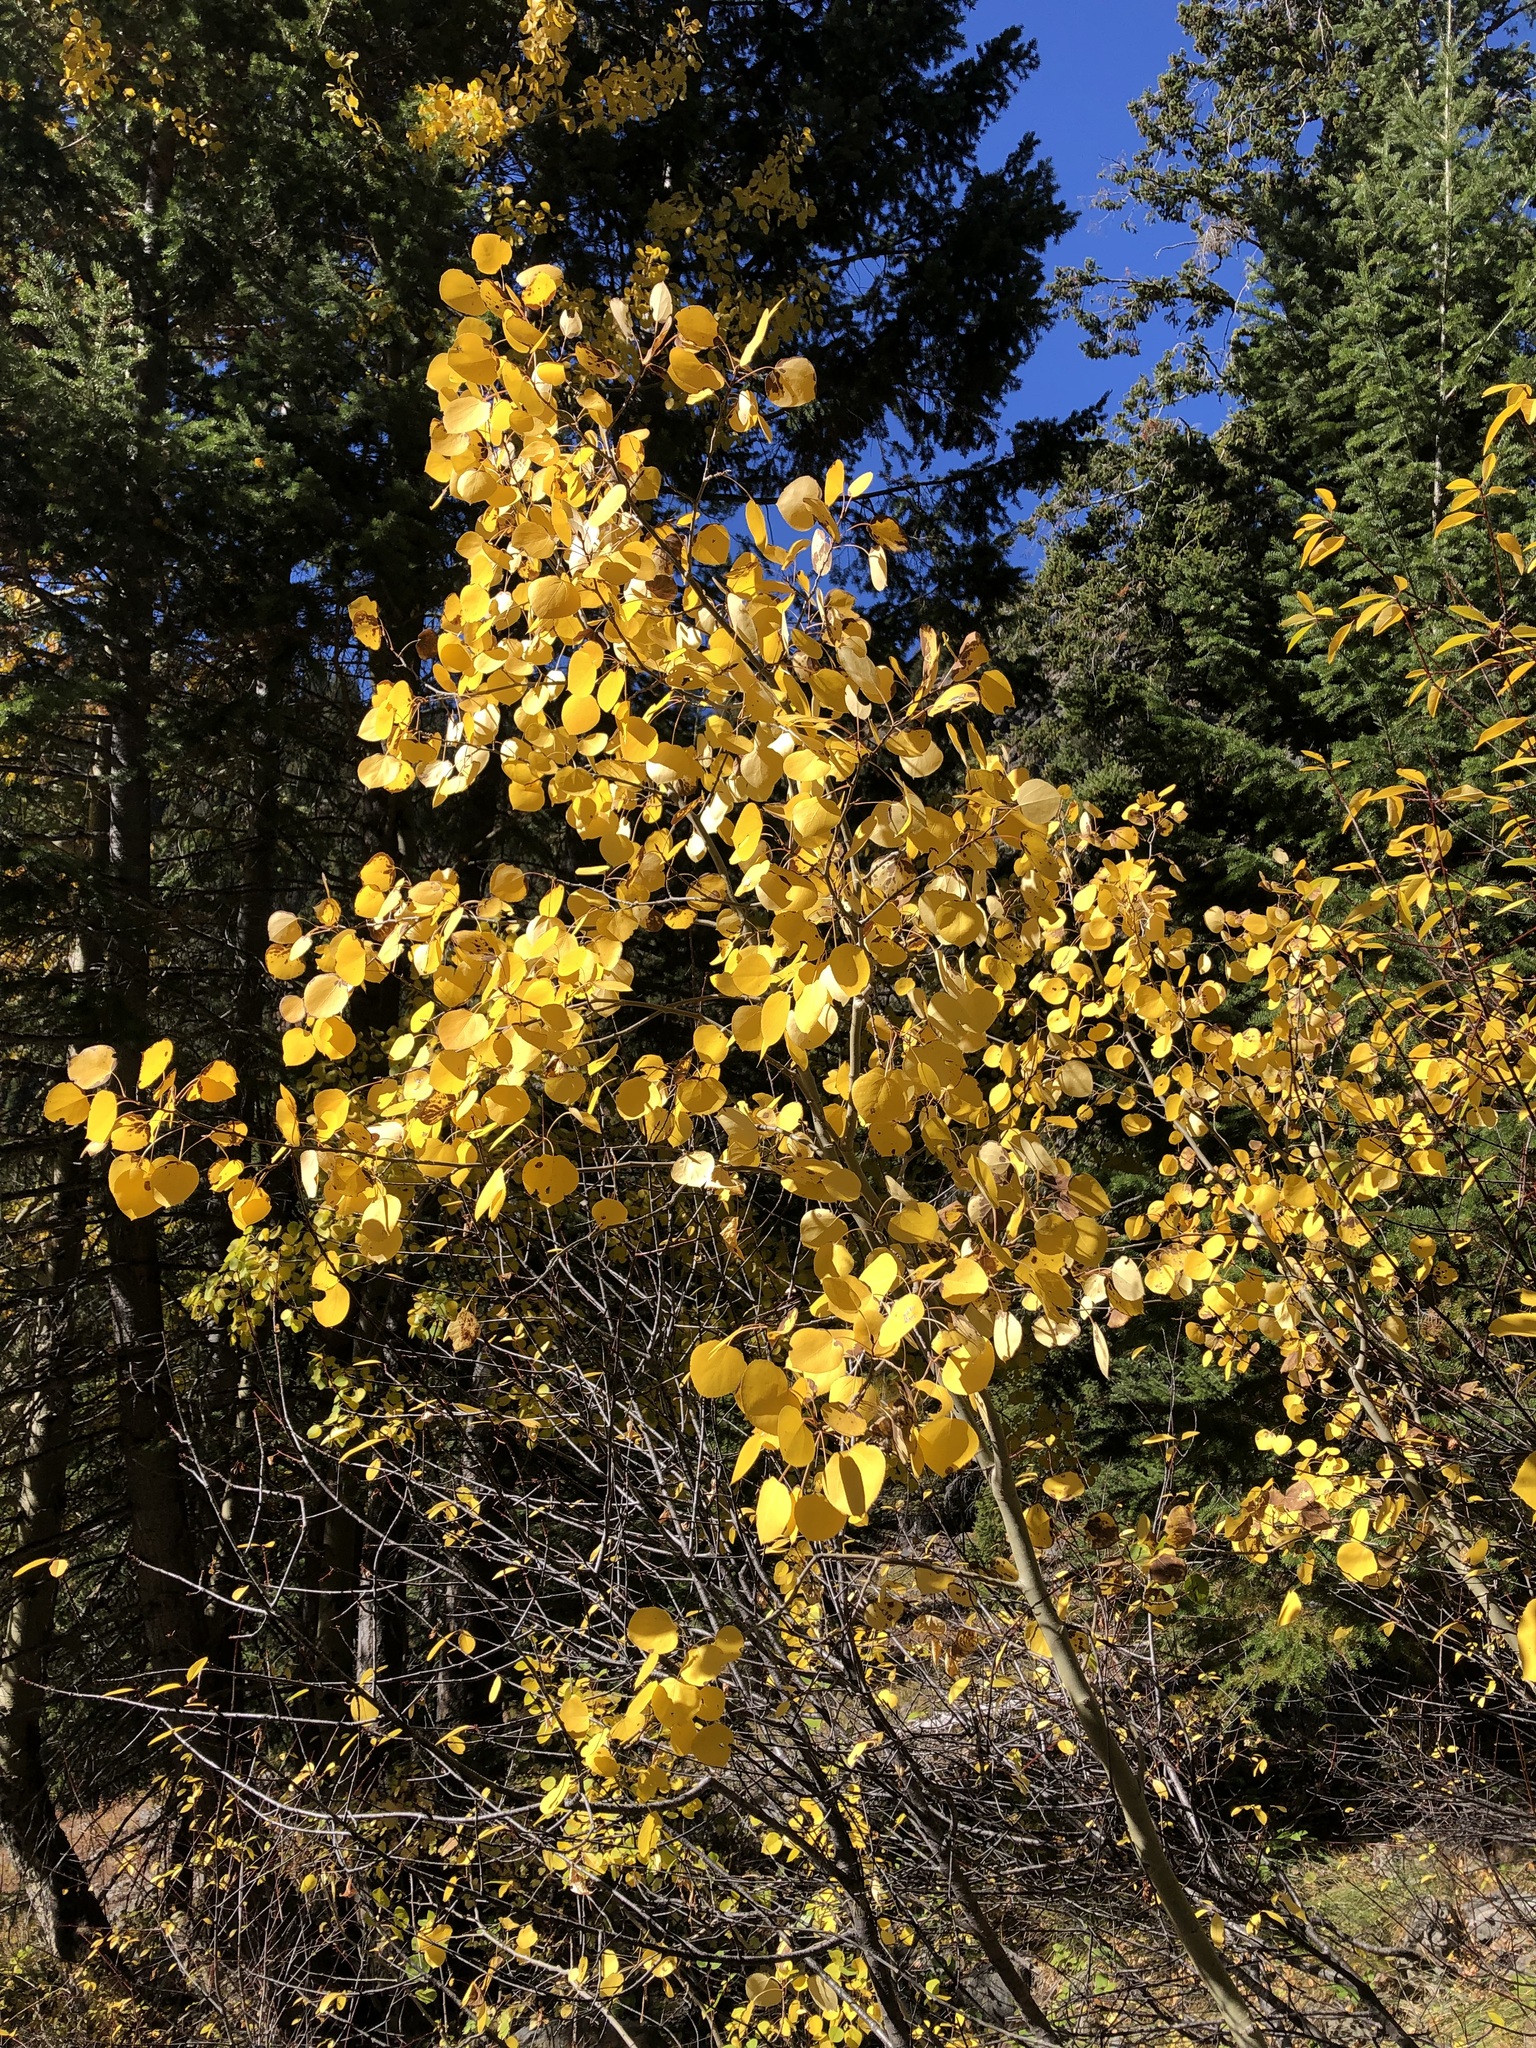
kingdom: Plantae
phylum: Tracheophyta
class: Magnoliopsida
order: Malpighiales
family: Salicaceae
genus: Populus
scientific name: Populus tremuloides
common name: Quaking aspen
